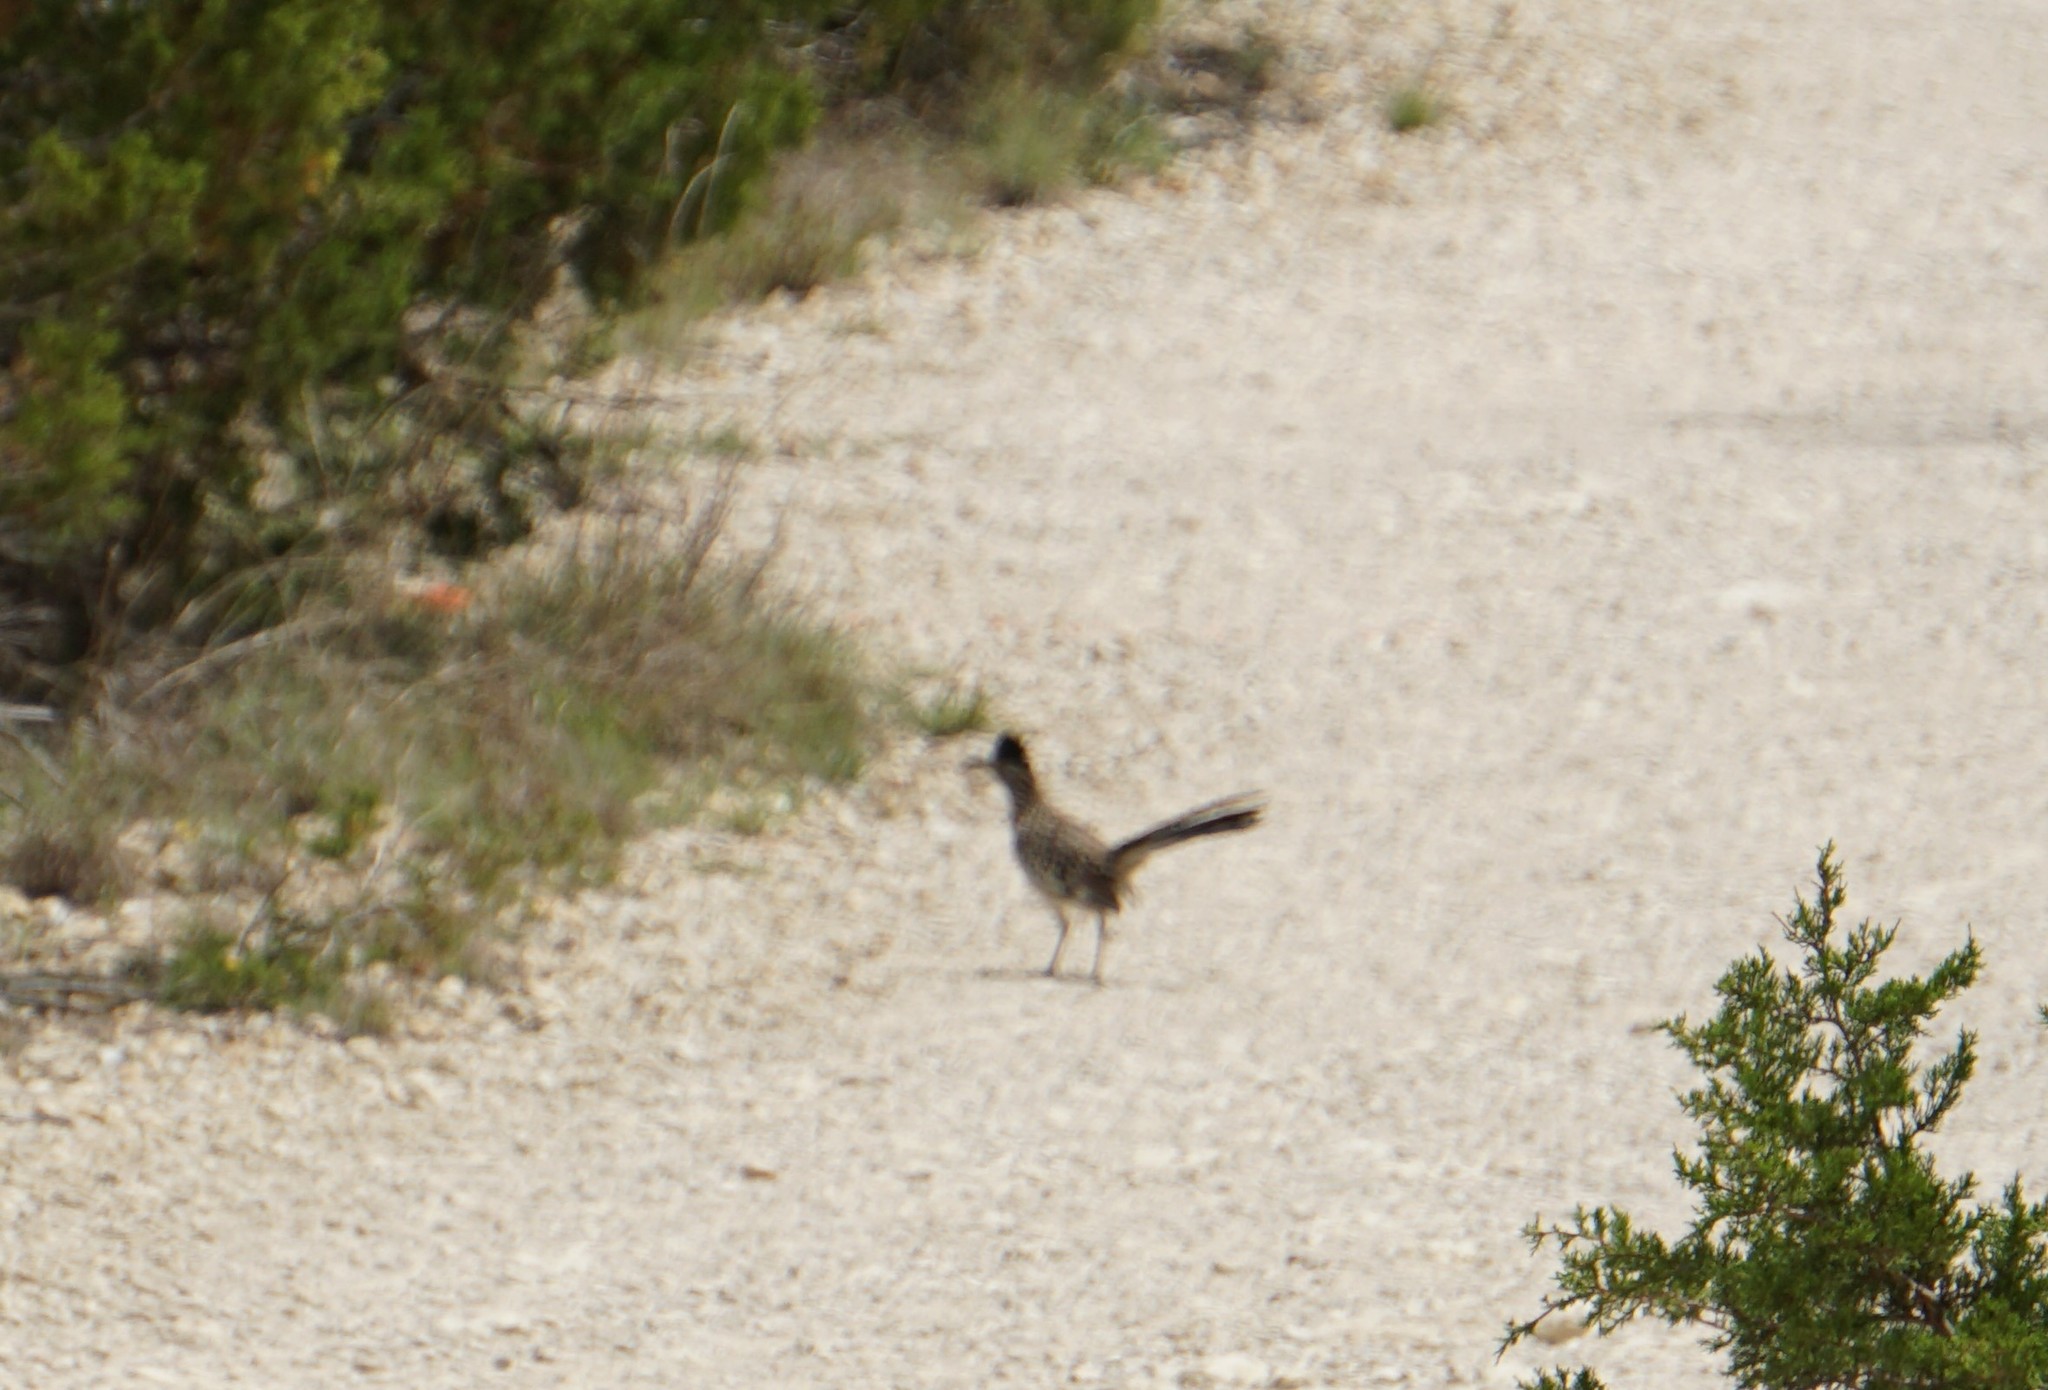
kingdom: Animalia
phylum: Chordata
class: Aves
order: Cuculiformes
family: Cuculidae
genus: Geococcyx
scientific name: Geococcyx californianus
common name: Greater roadrunner
